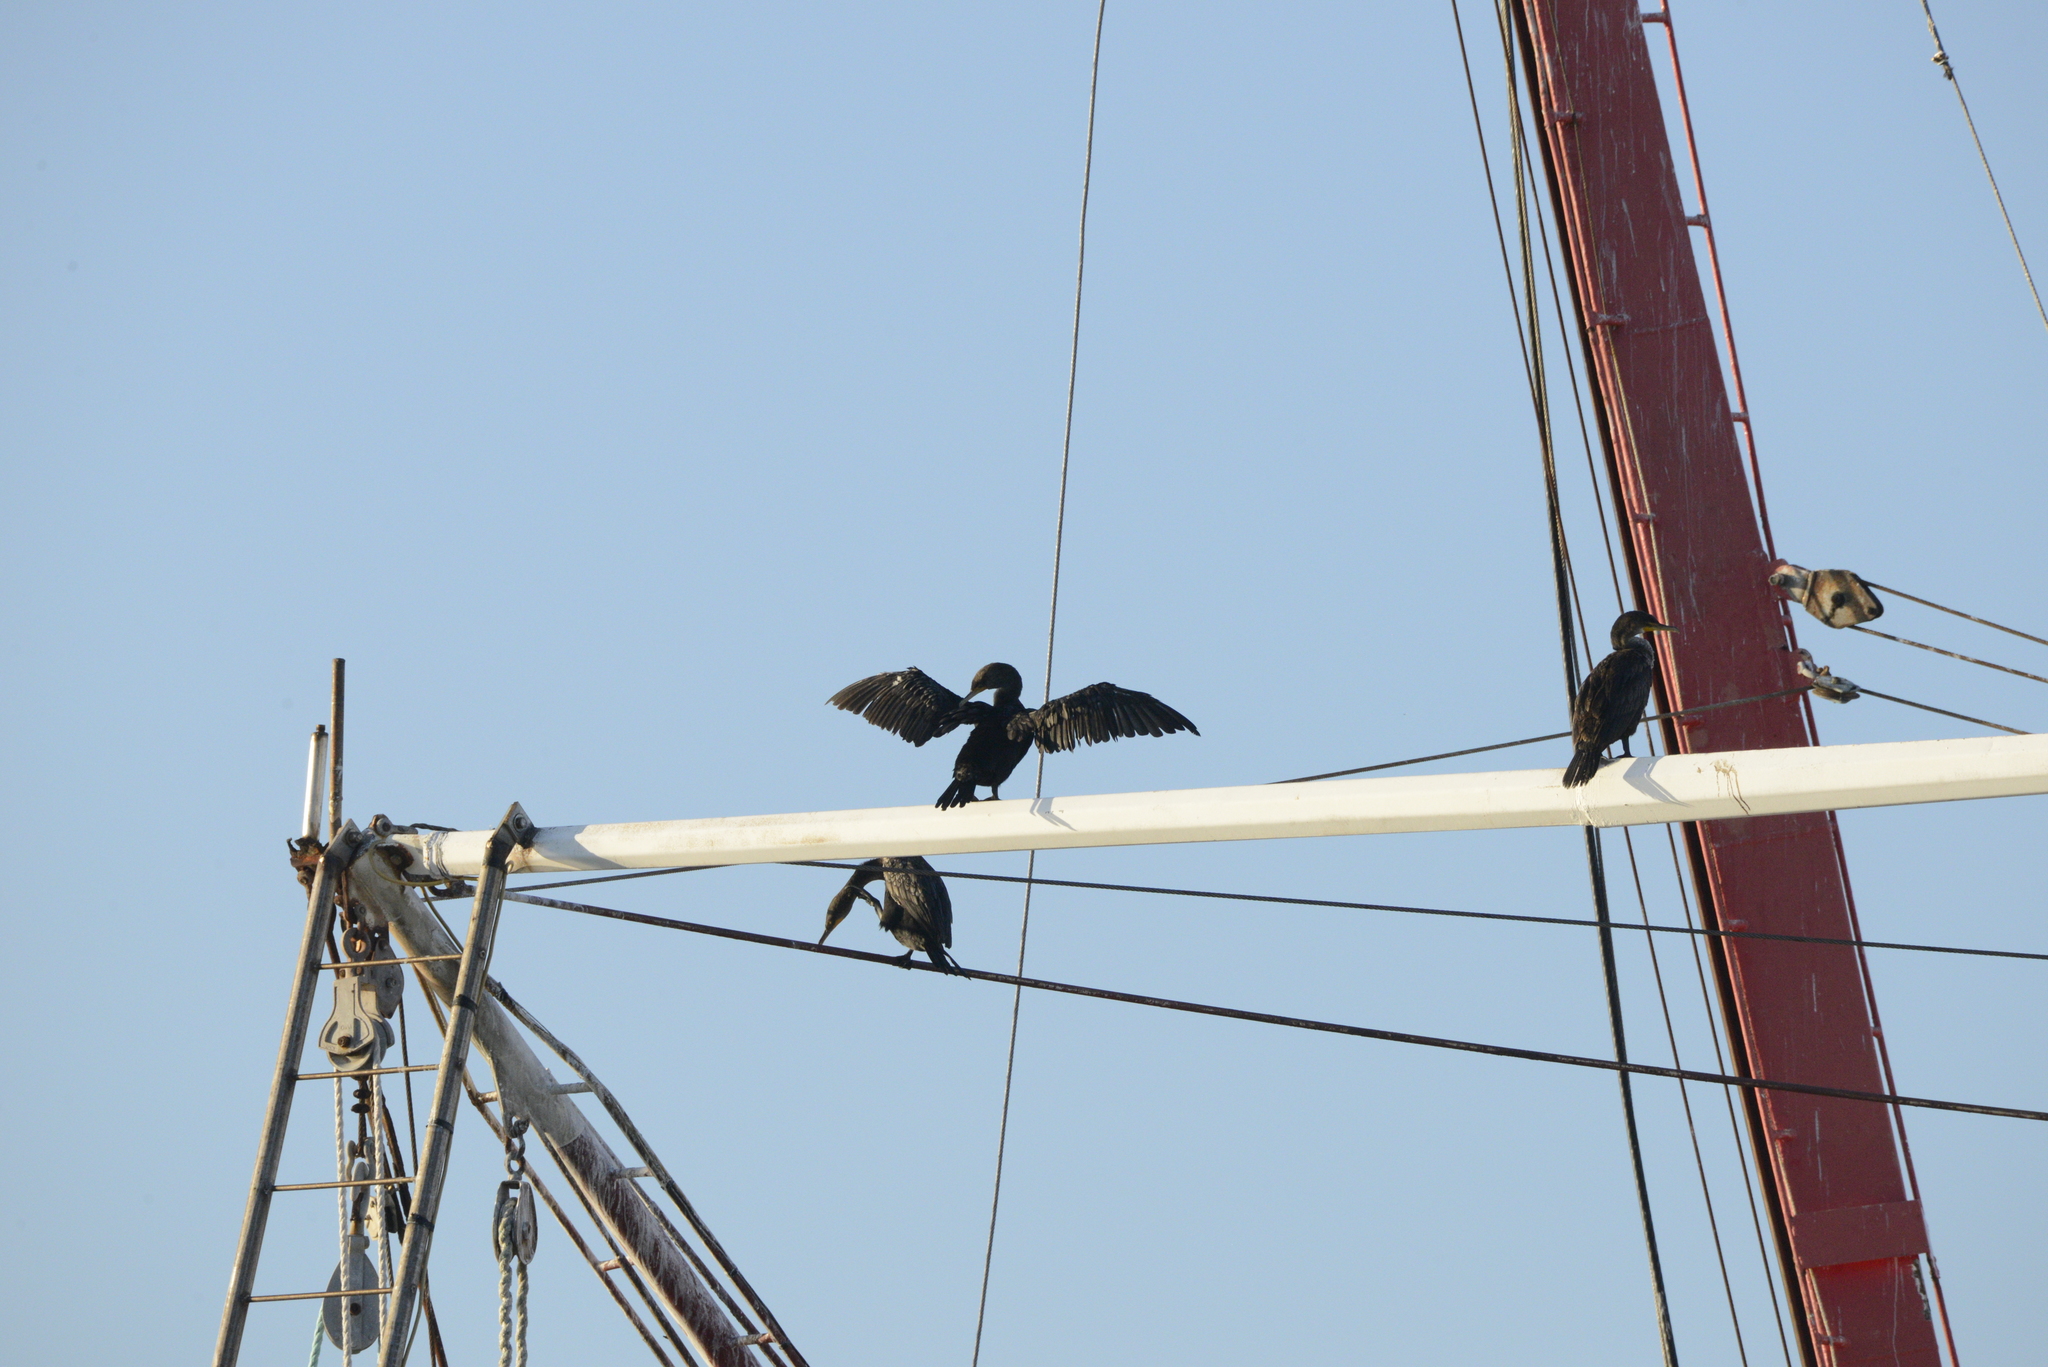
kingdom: Animalia
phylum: Chordata
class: Aves
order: Suliformes
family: Phalacrocoracidae
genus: Phalacrocorax
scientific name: Phalacrocorax auritus
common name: Double-crested cormorant
